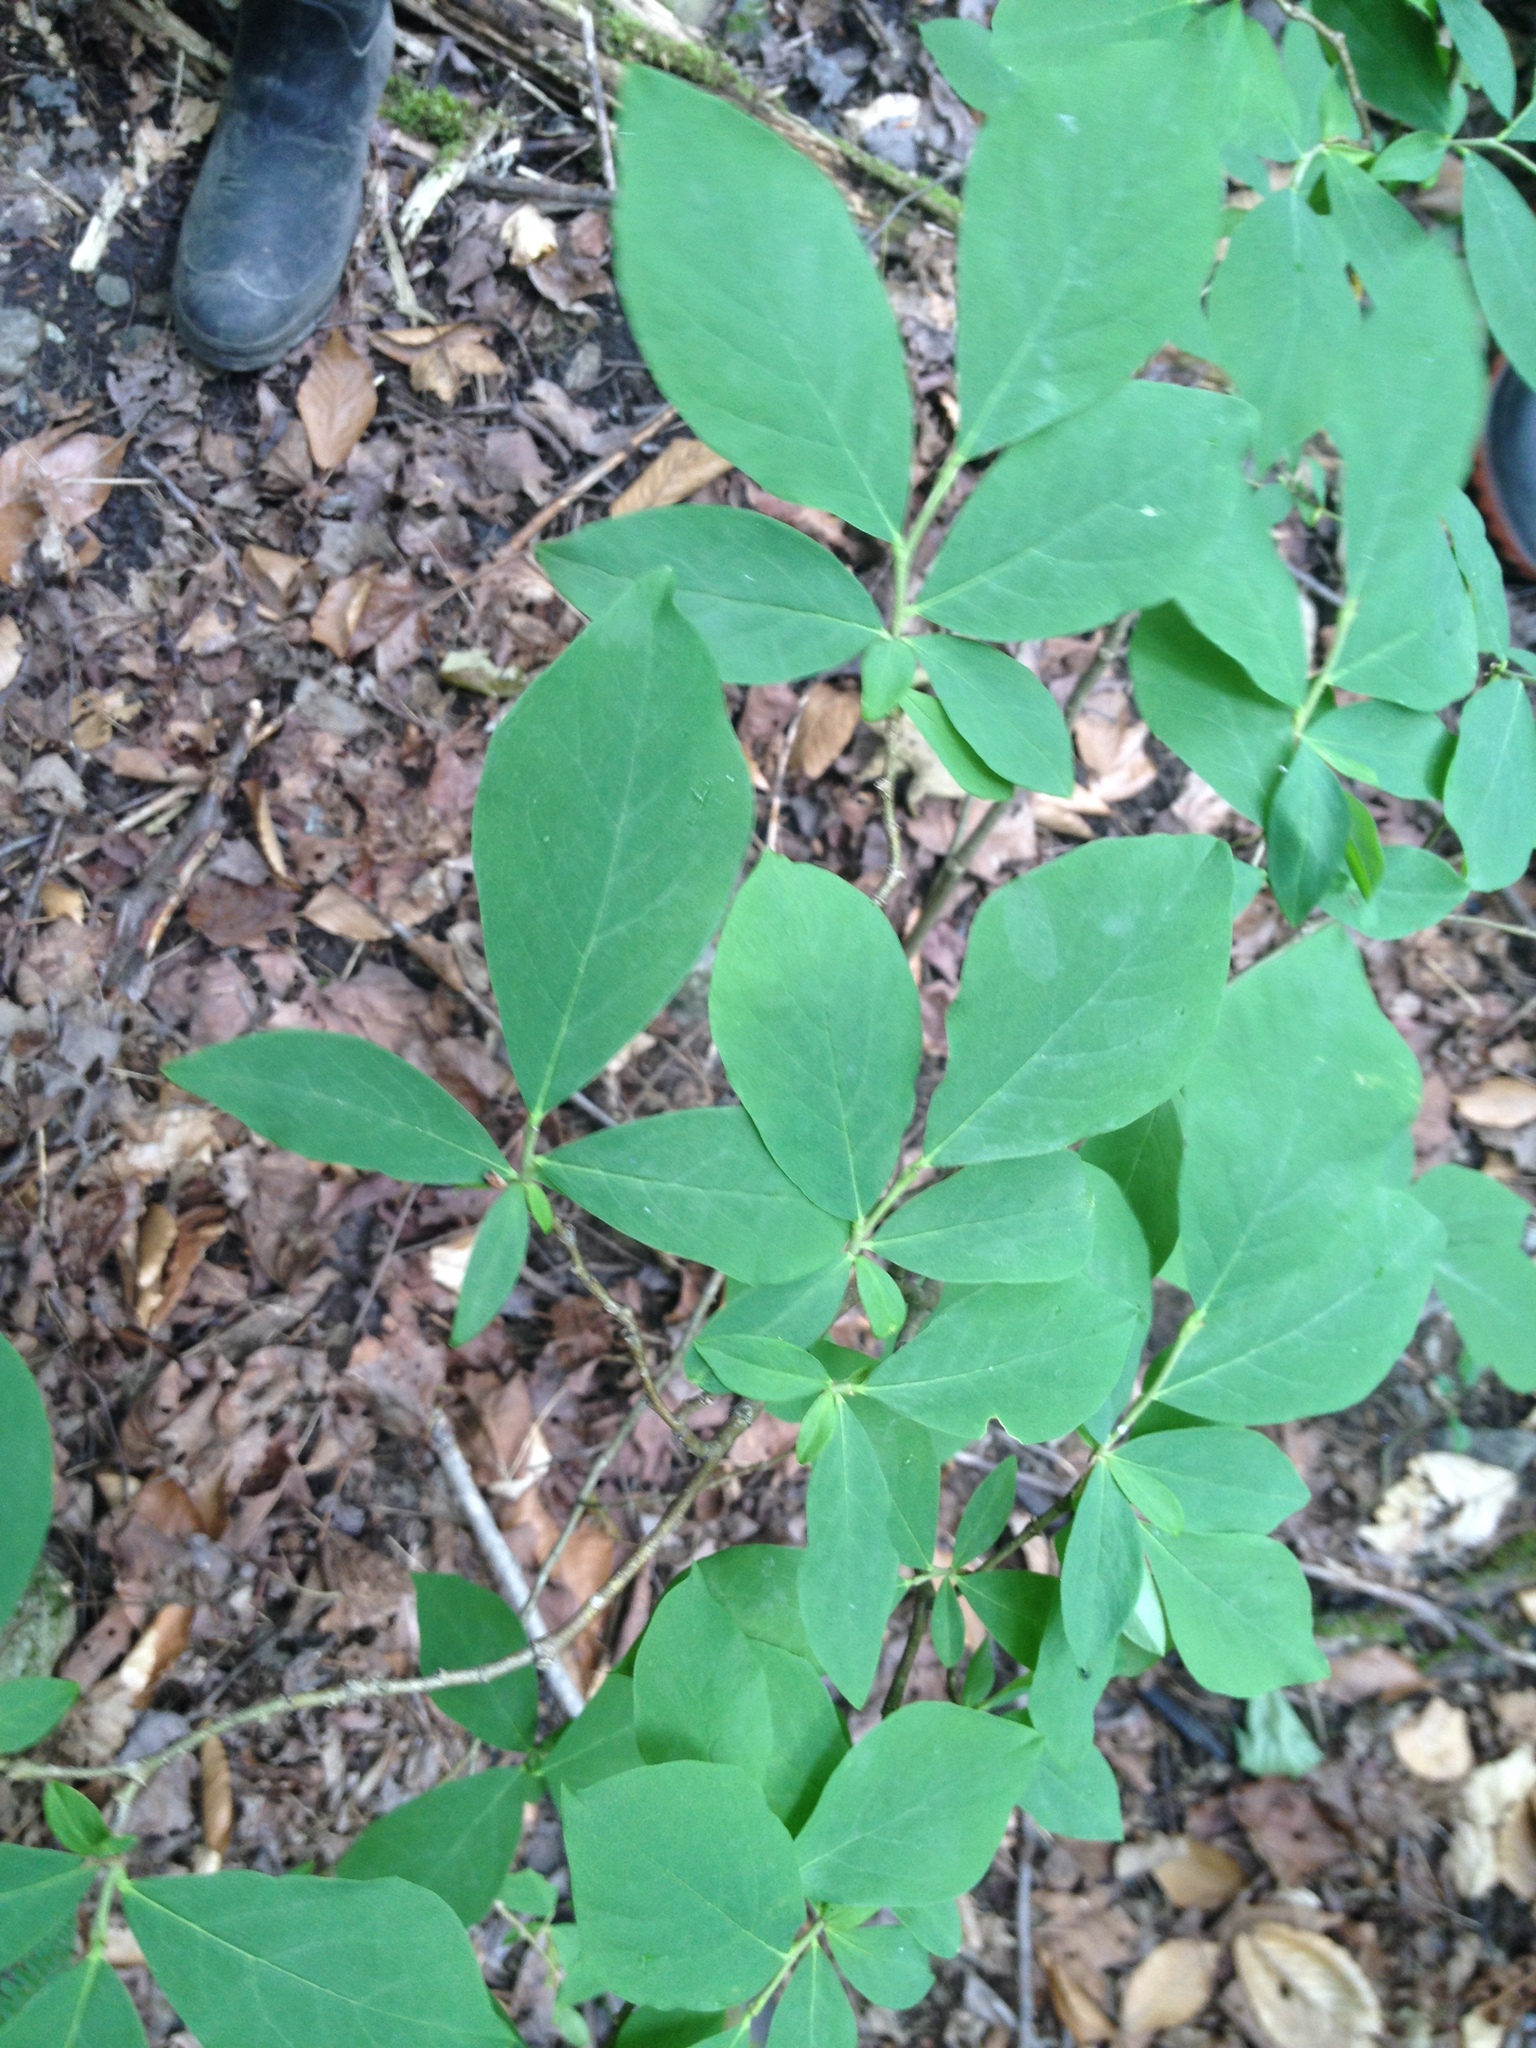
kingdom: Plantae
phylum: Tracheophyta
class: Magnoliopsida
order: Malvales
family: Thymelaeaceae
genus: Dirca
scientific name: Dirca palustris
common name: Leatherwood
